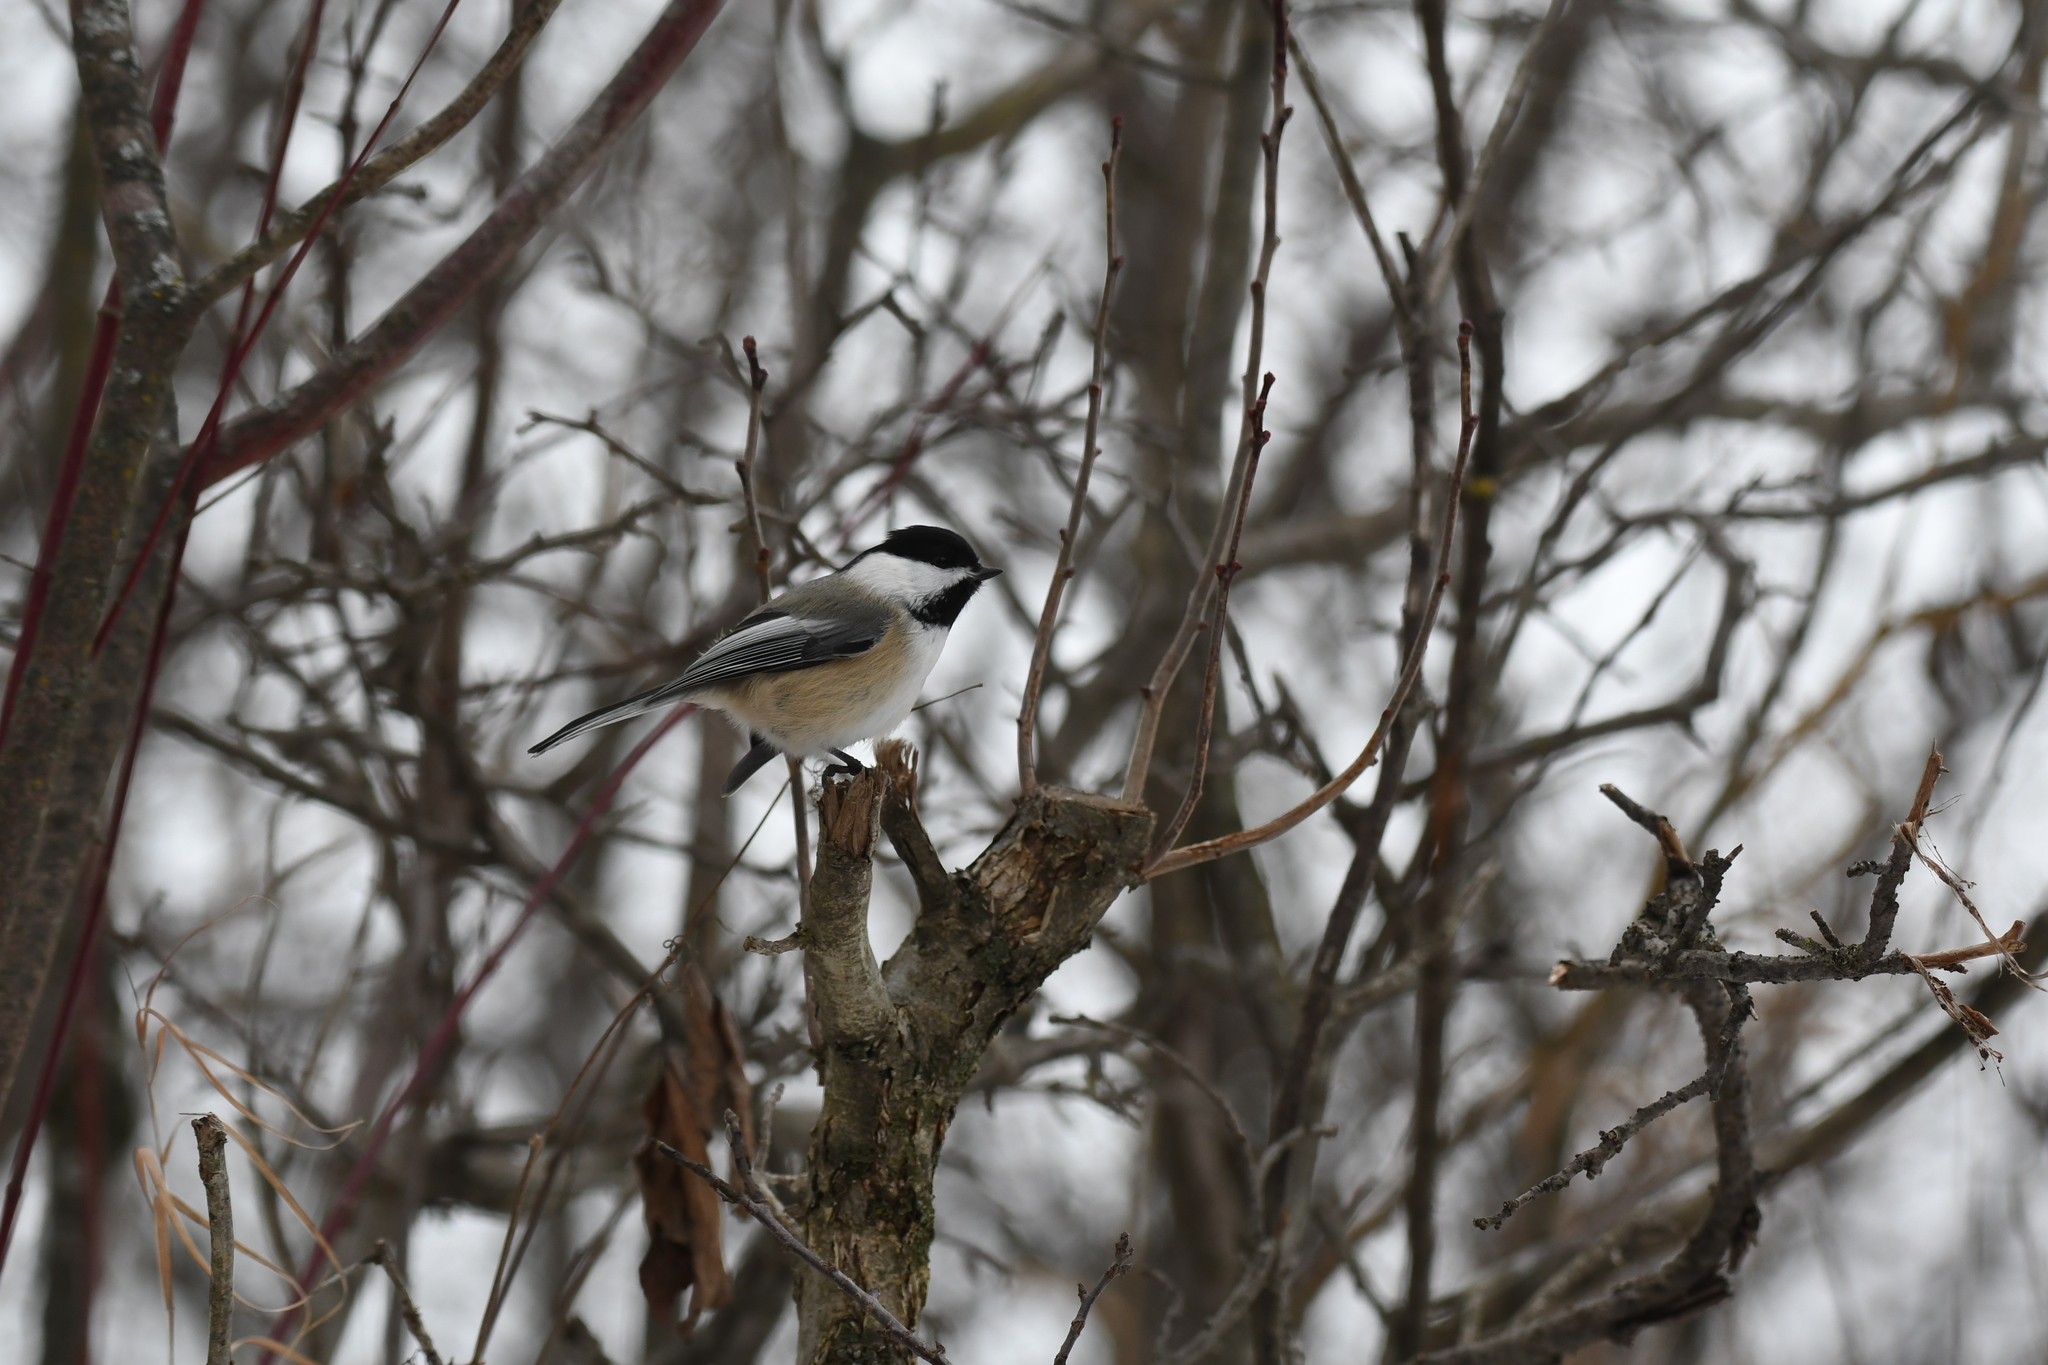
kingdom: Animalia
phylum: Chordata
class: Aves
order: Passeriformes
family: Paridae
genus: Poecile
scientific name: Poecile atricapillus
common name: Black-capped chickadee
